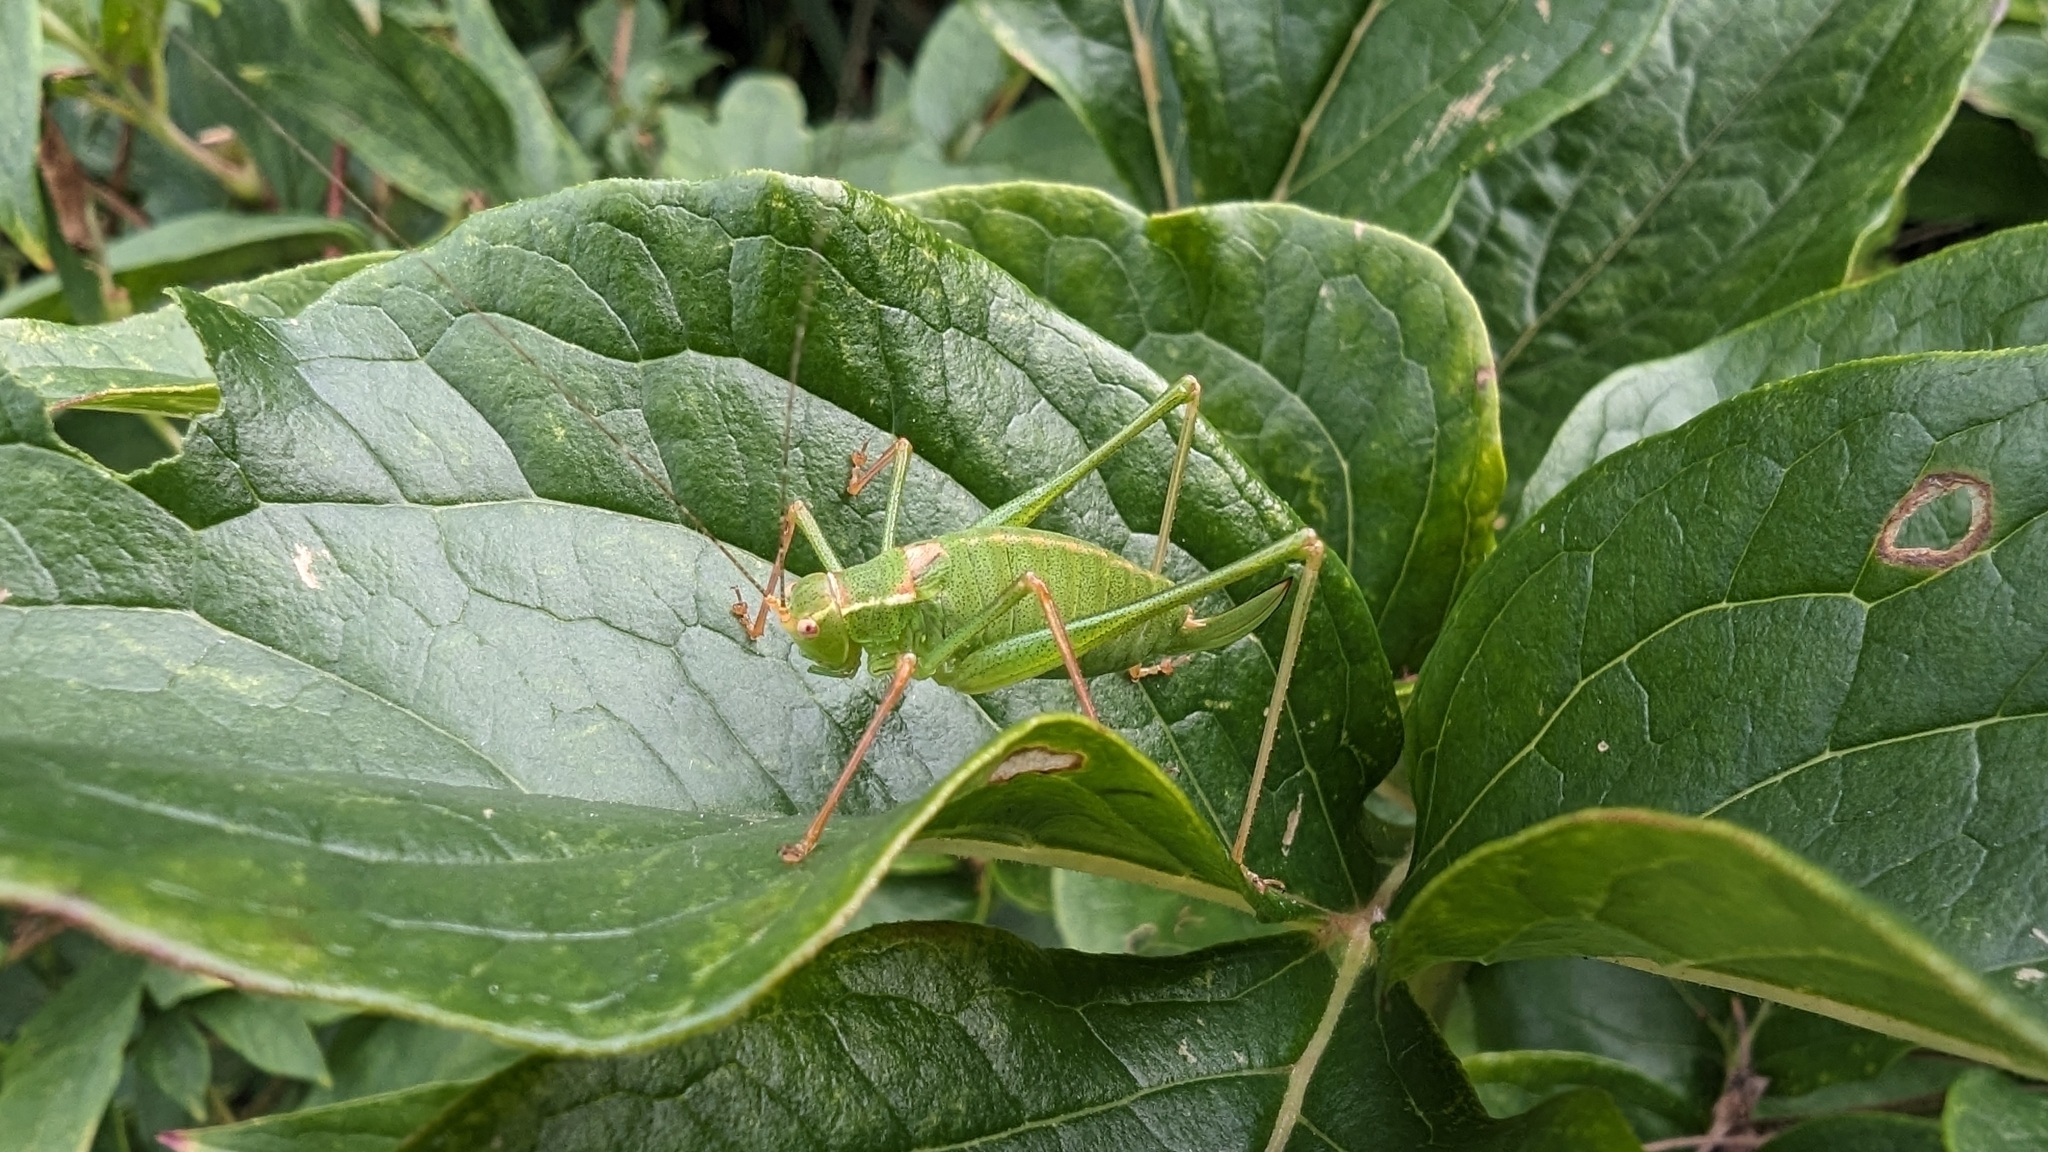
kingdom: Animalia
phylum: Arthropoda
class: Insecta
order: Orthoptera
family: Tettigoniidae
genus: Leptophyes
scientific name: Leptophyes punctatissima
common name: Speckled bush-cricket
